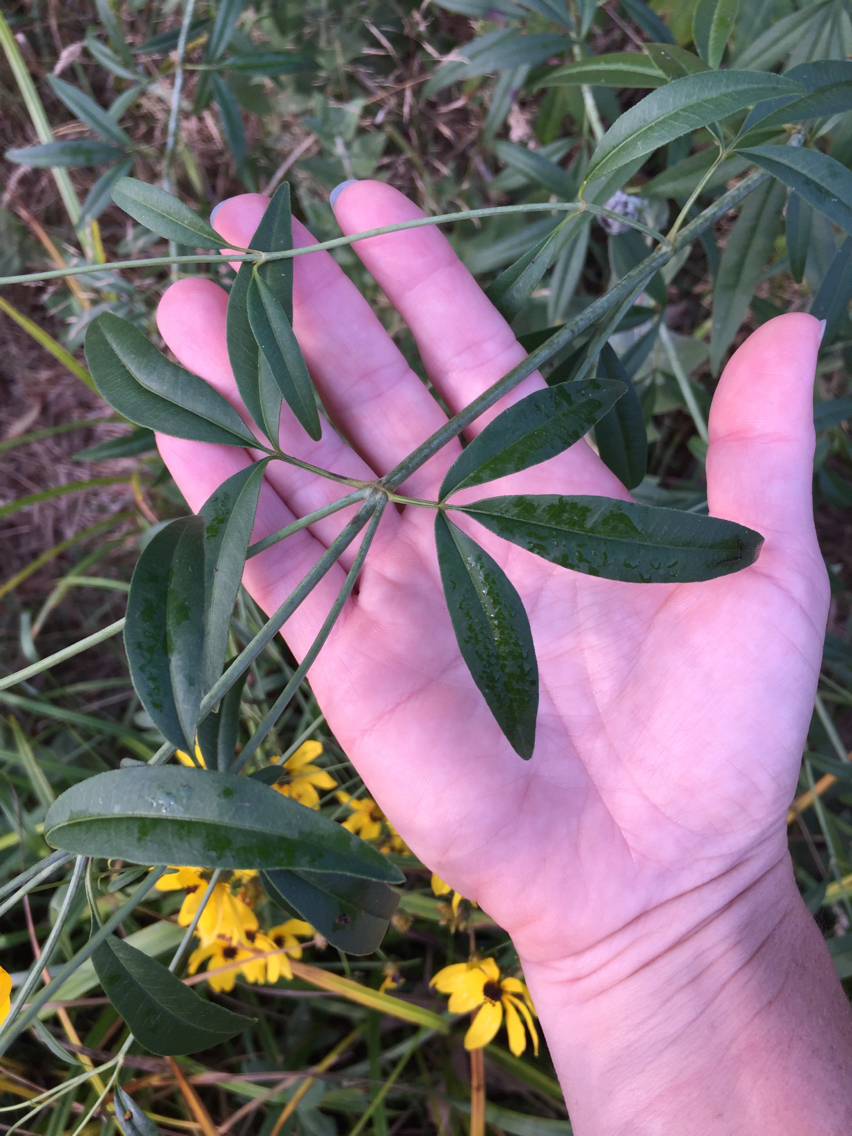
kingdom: Plantae
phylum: Tracheophyta
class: Magnoliopsida
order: Asterales
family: Asteraceae
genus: Coreopsis
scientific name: Coreopsis tripteris
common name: Tall coreopsis
